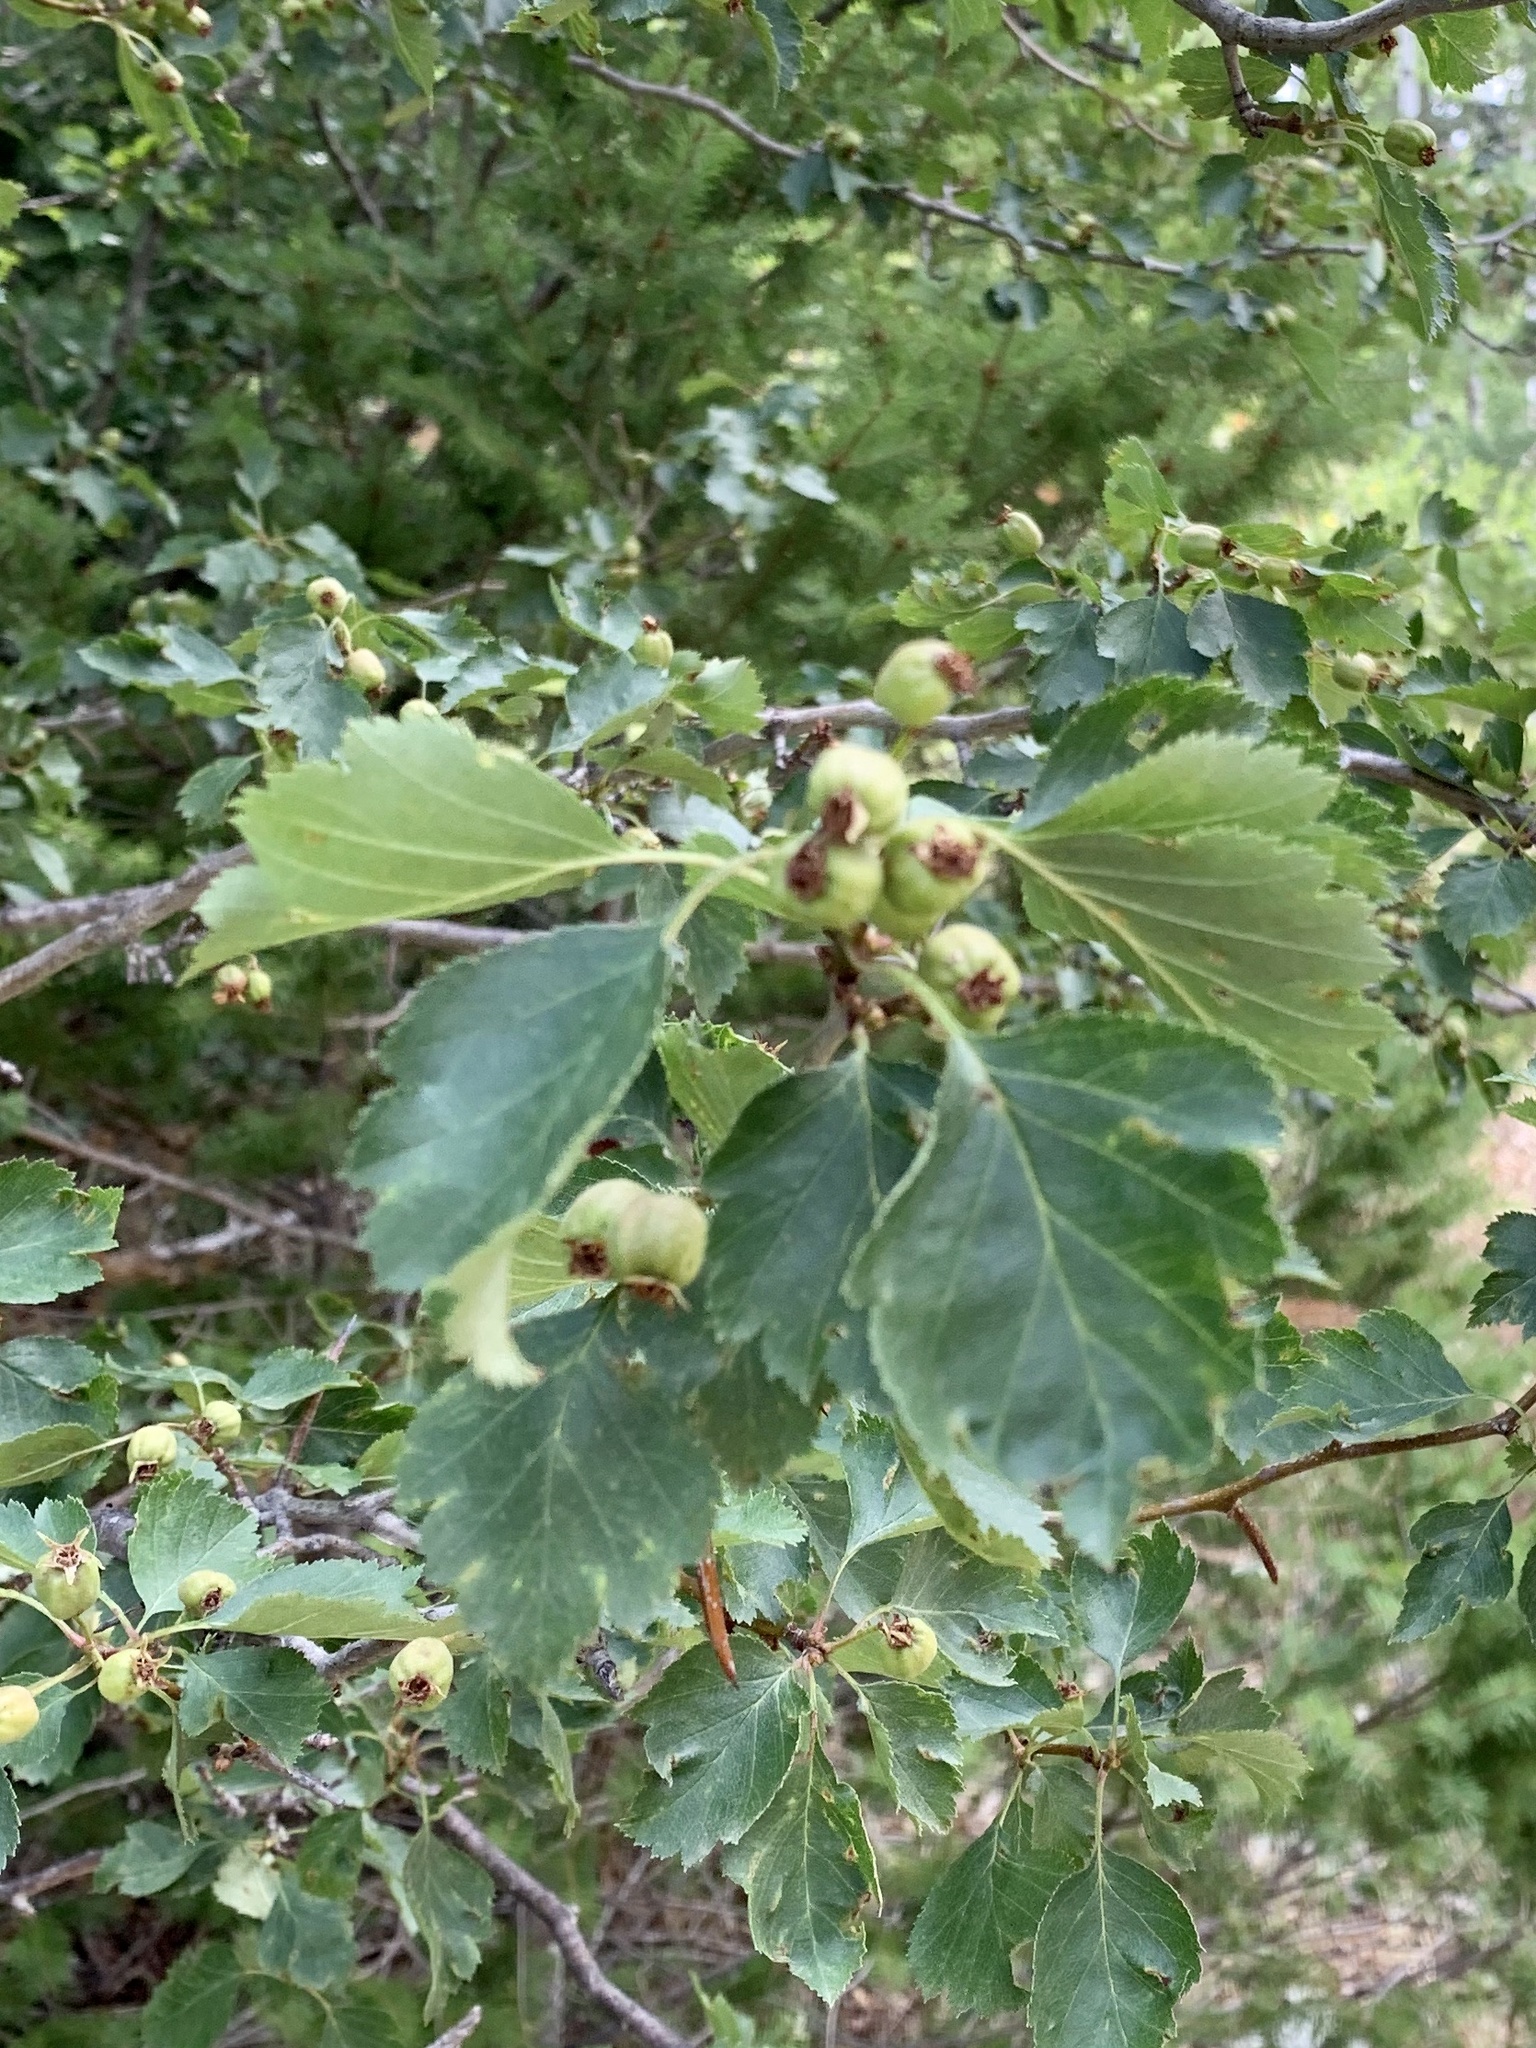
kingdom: Plantae
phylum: Tracheophyta
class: Magnoliopsida
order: Rosales
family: Rosaceae
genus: Crataegus
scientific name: Crataegus wootoniana
